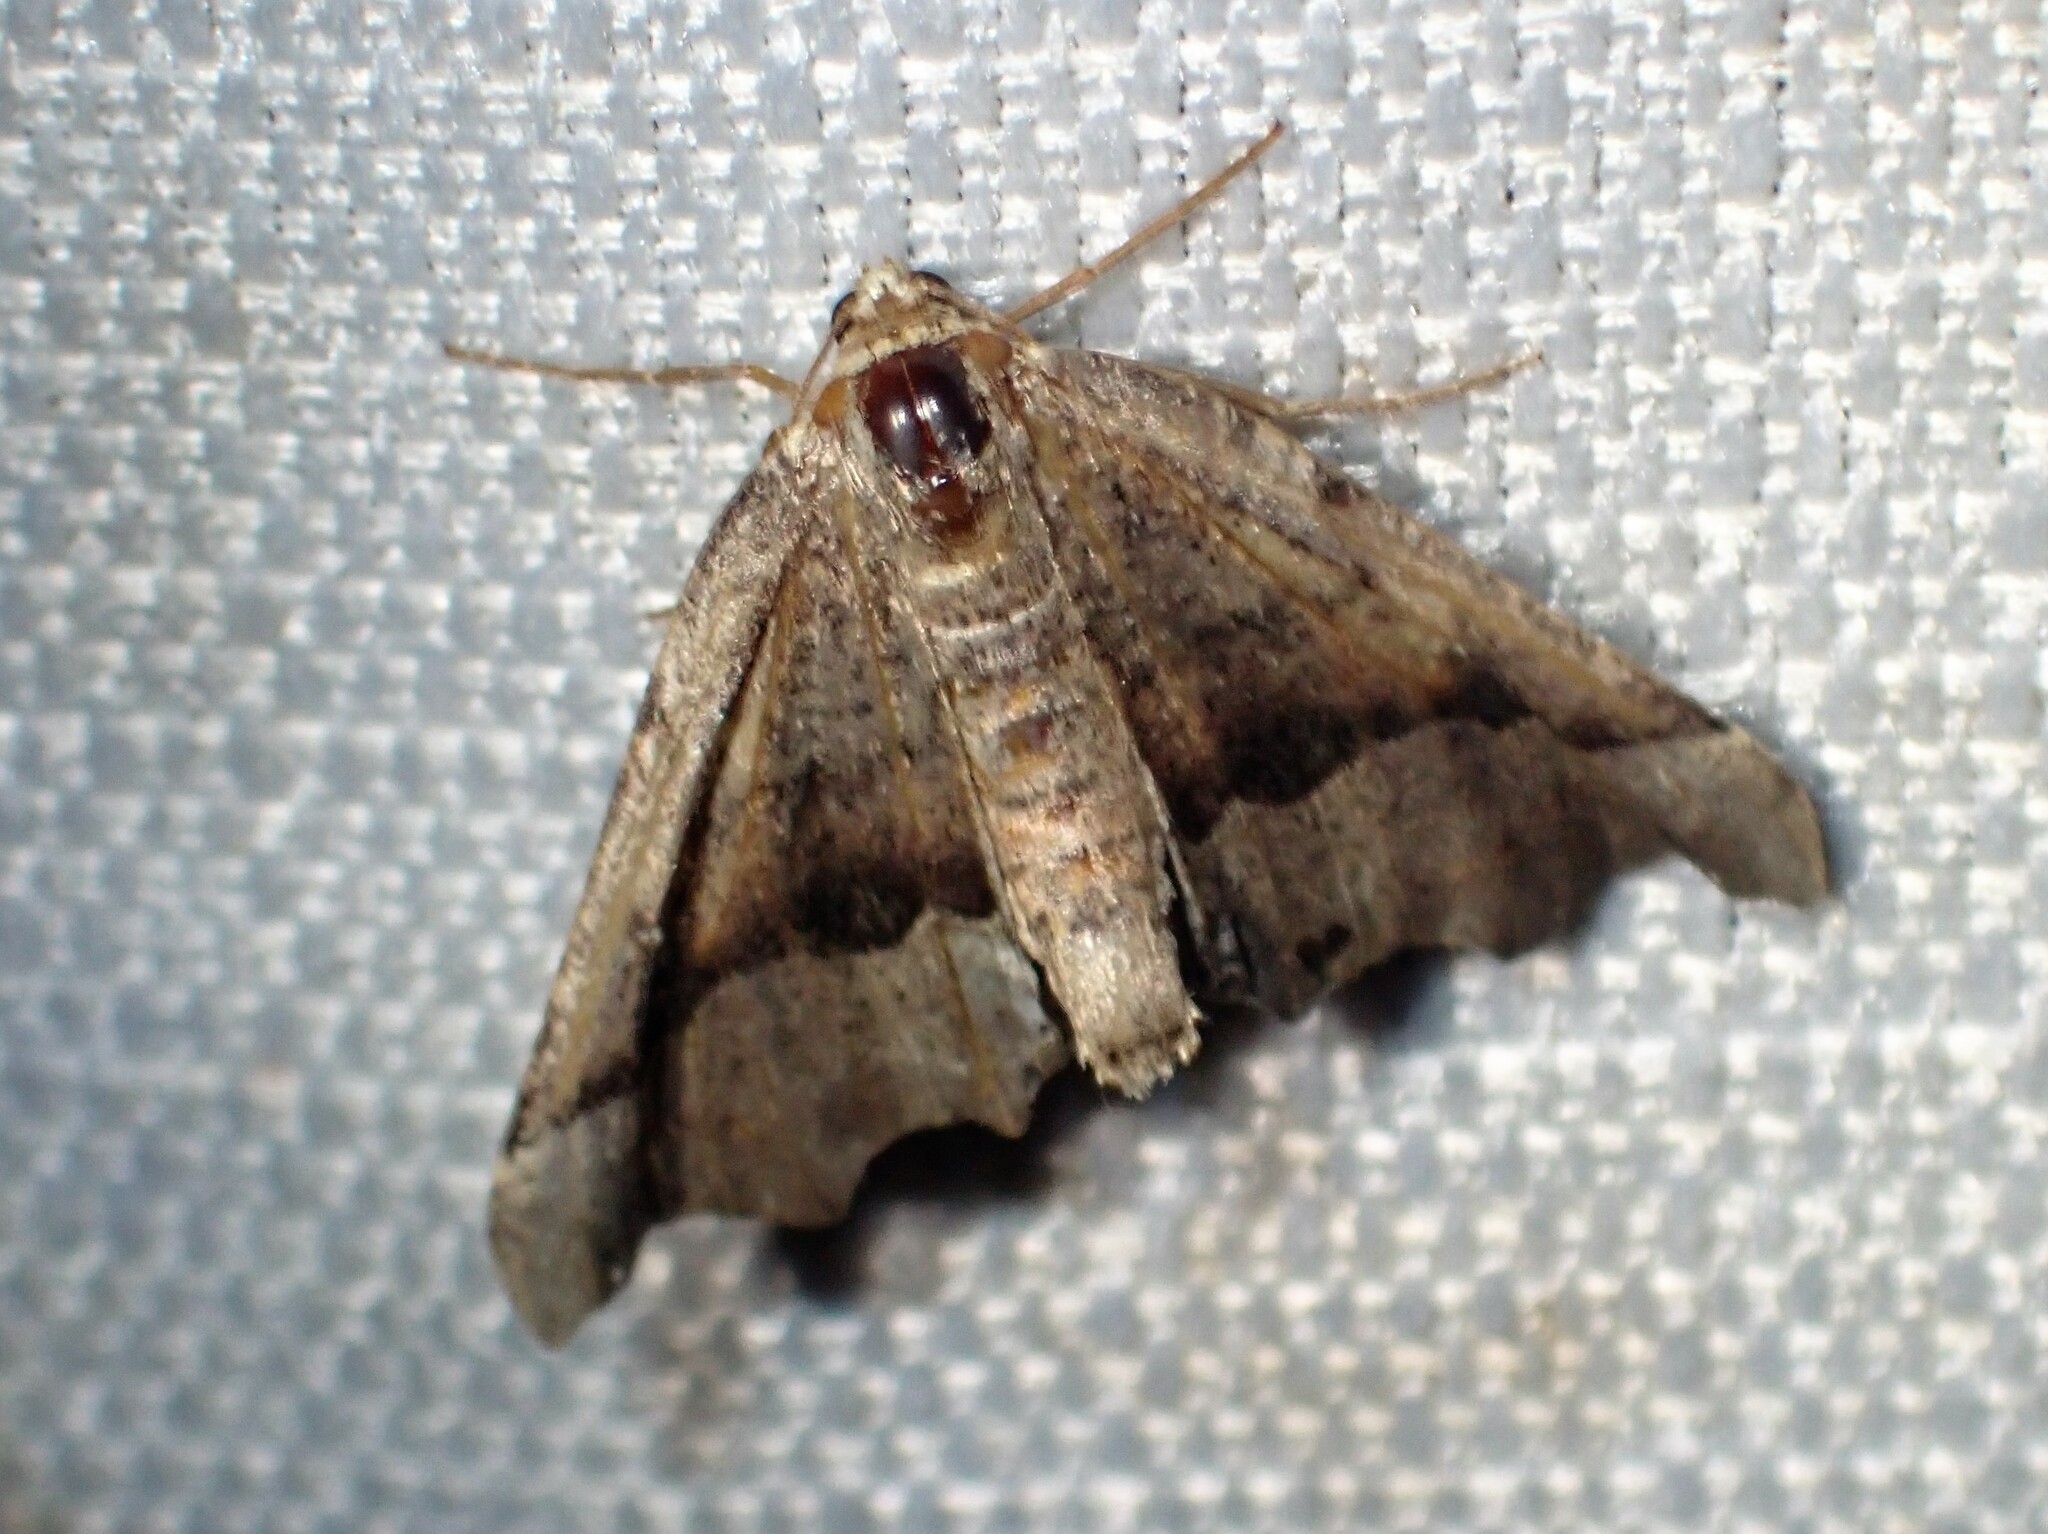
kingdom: Animalia
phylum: Arthropoda
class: Insecta
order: Lepidoptera
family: Geometridae
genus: Pero
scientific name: Pero morrisonaria
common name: Morrison's pero
